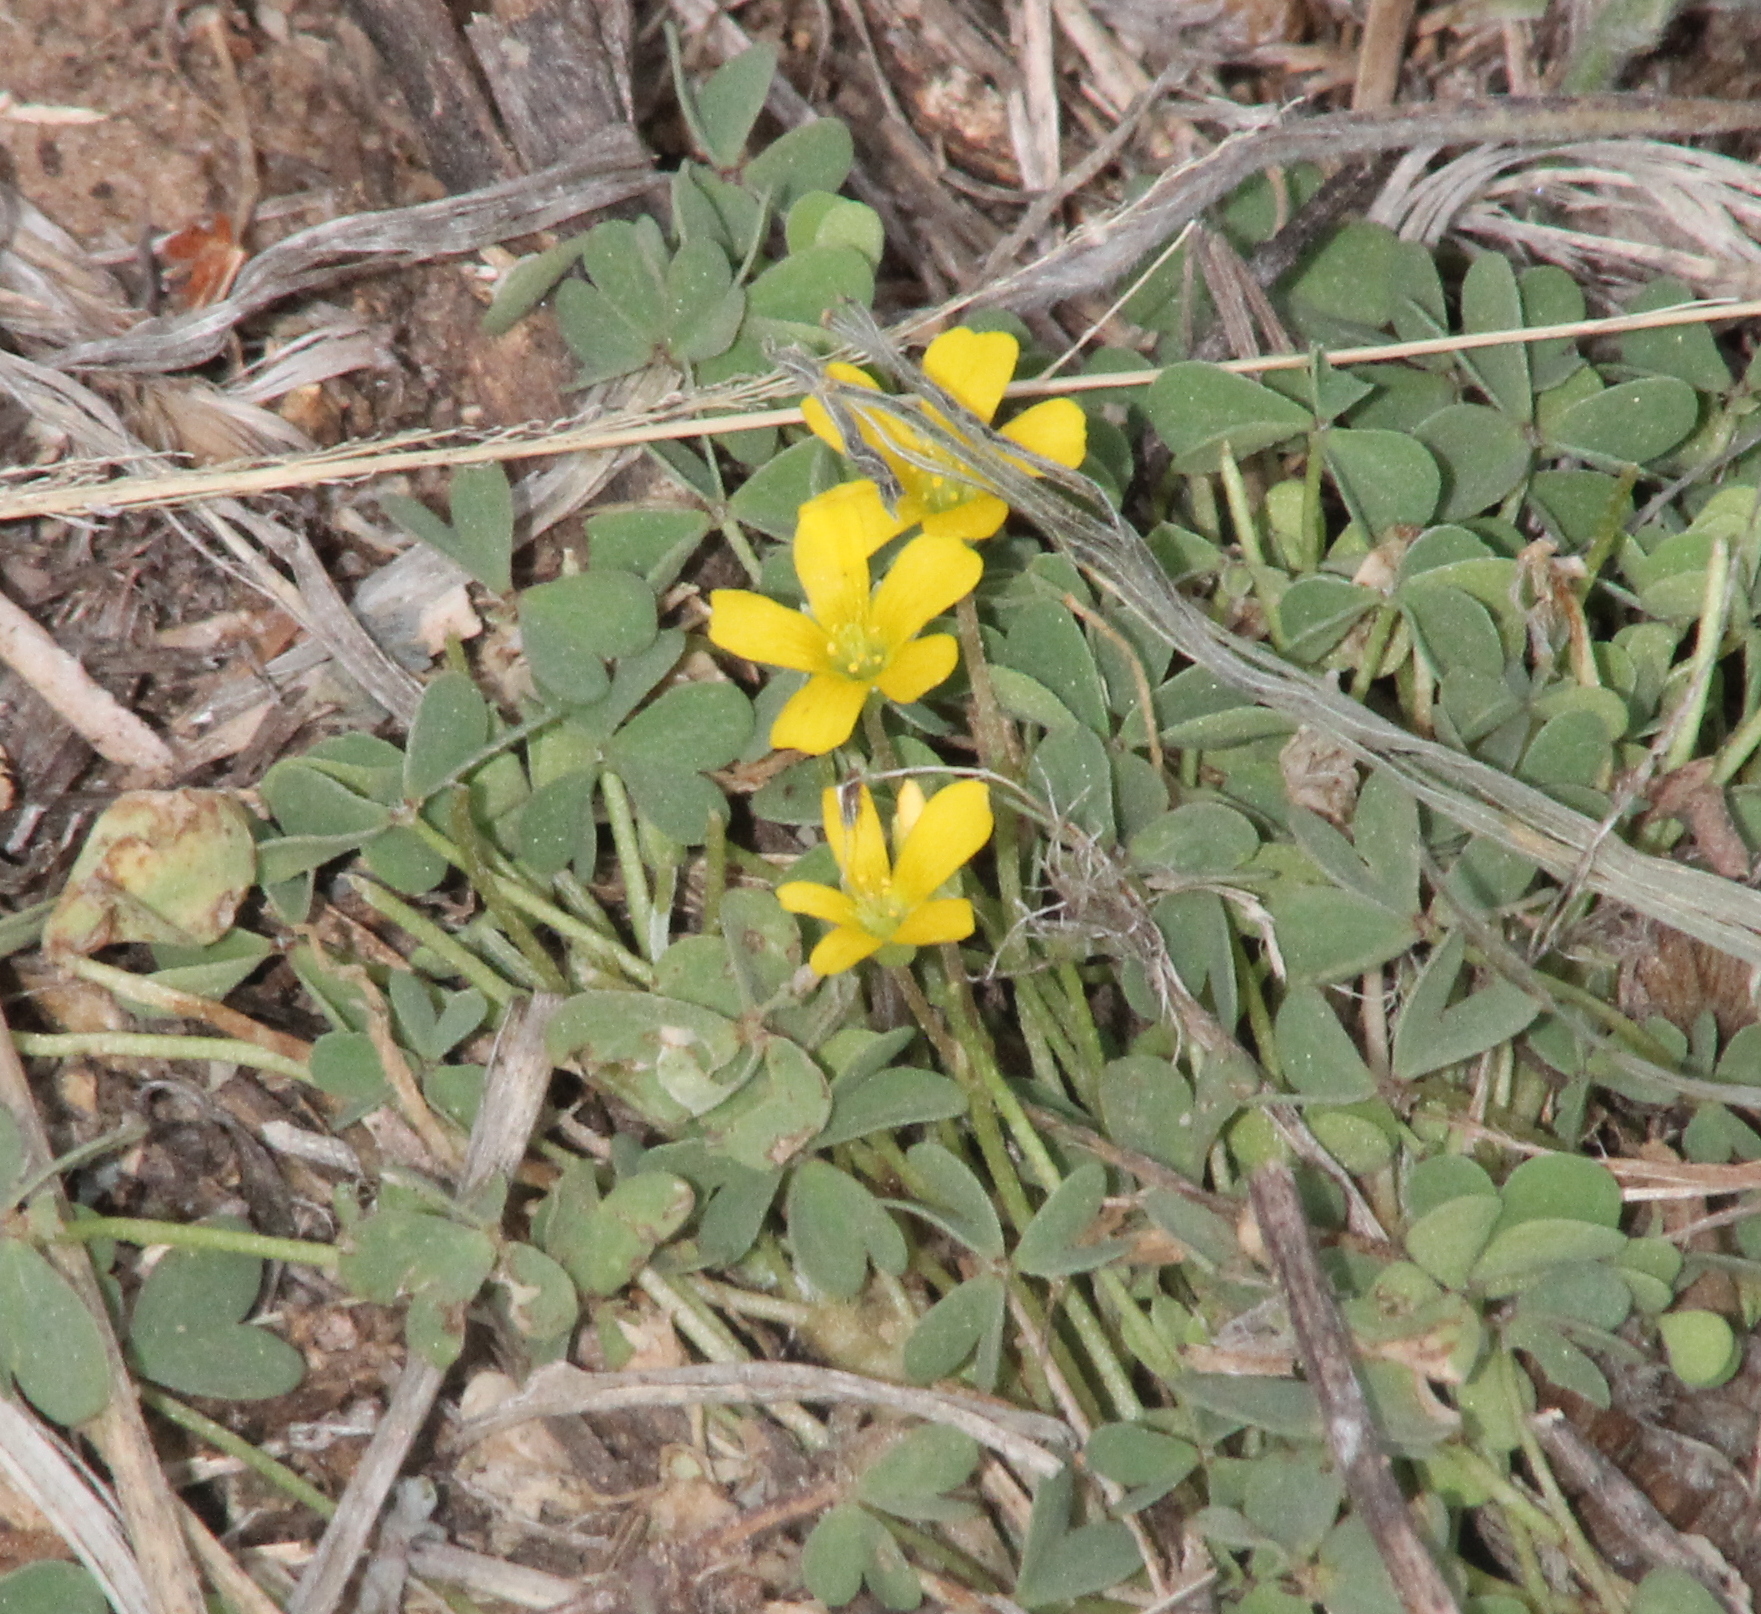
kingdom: Plantae
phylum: Tracheophyta
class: Magnoliopsida
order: Oxalidales
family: Oxalidaceae
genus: Oxalis
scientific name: Oxalis corniculata
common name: Procumbent yellow-sorrel
